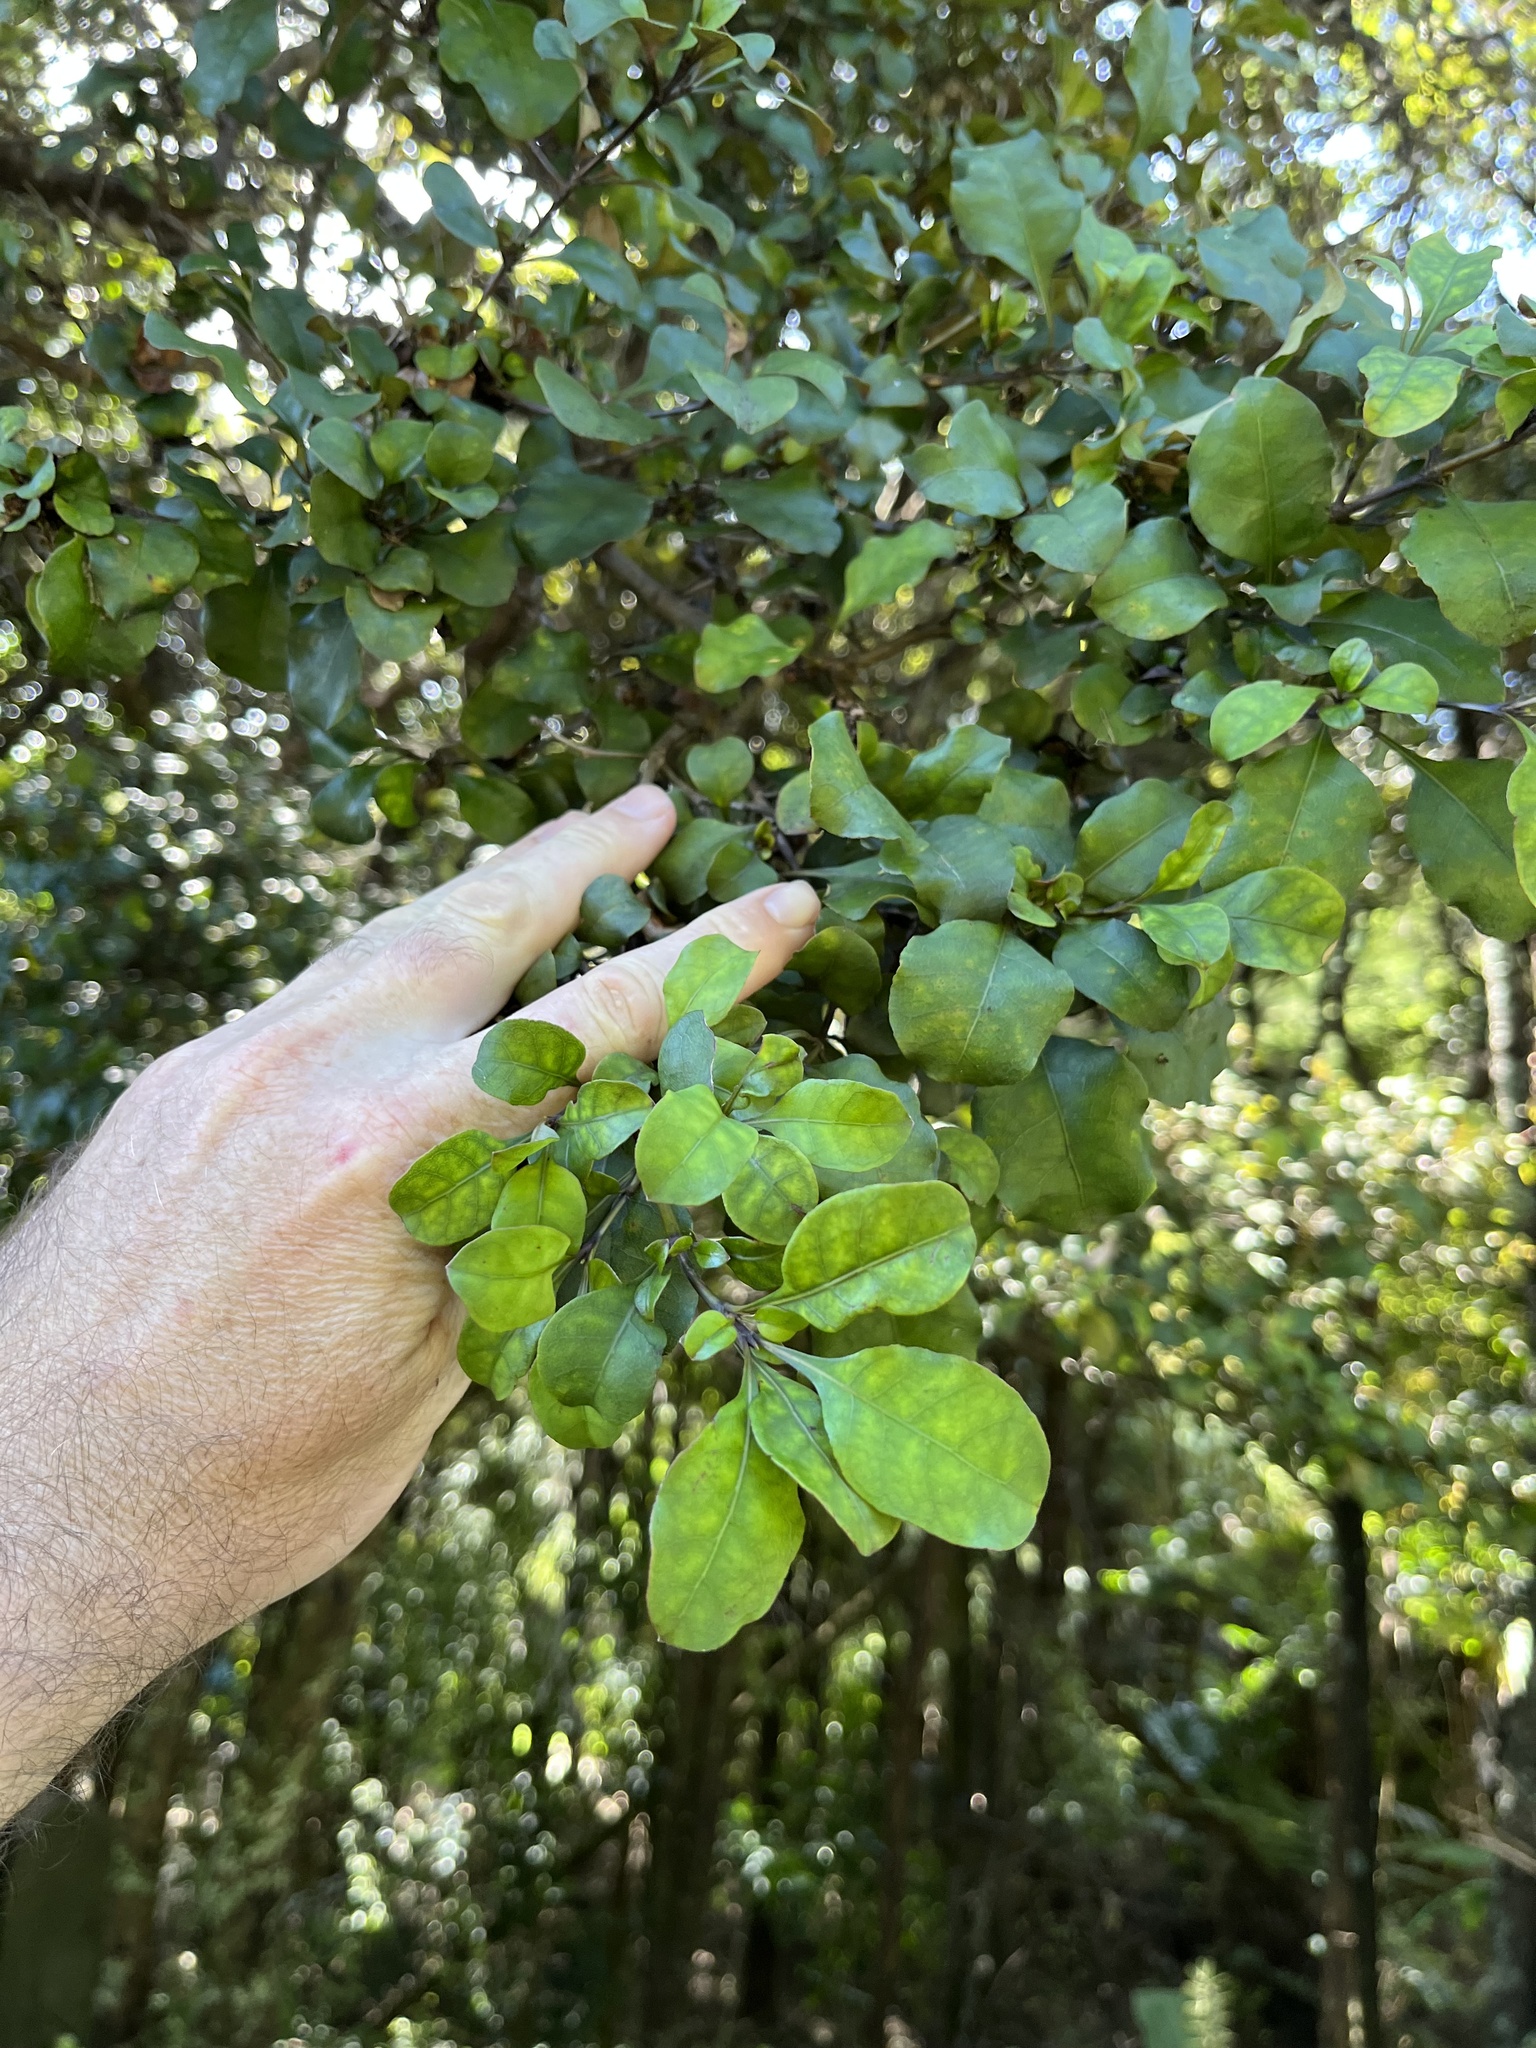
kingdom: Plantae
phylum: Tracheophyta
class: Magnoliopsida
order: Gentianales
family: Rubiaceae
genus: Coprosma
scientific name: Coprosma arborea
